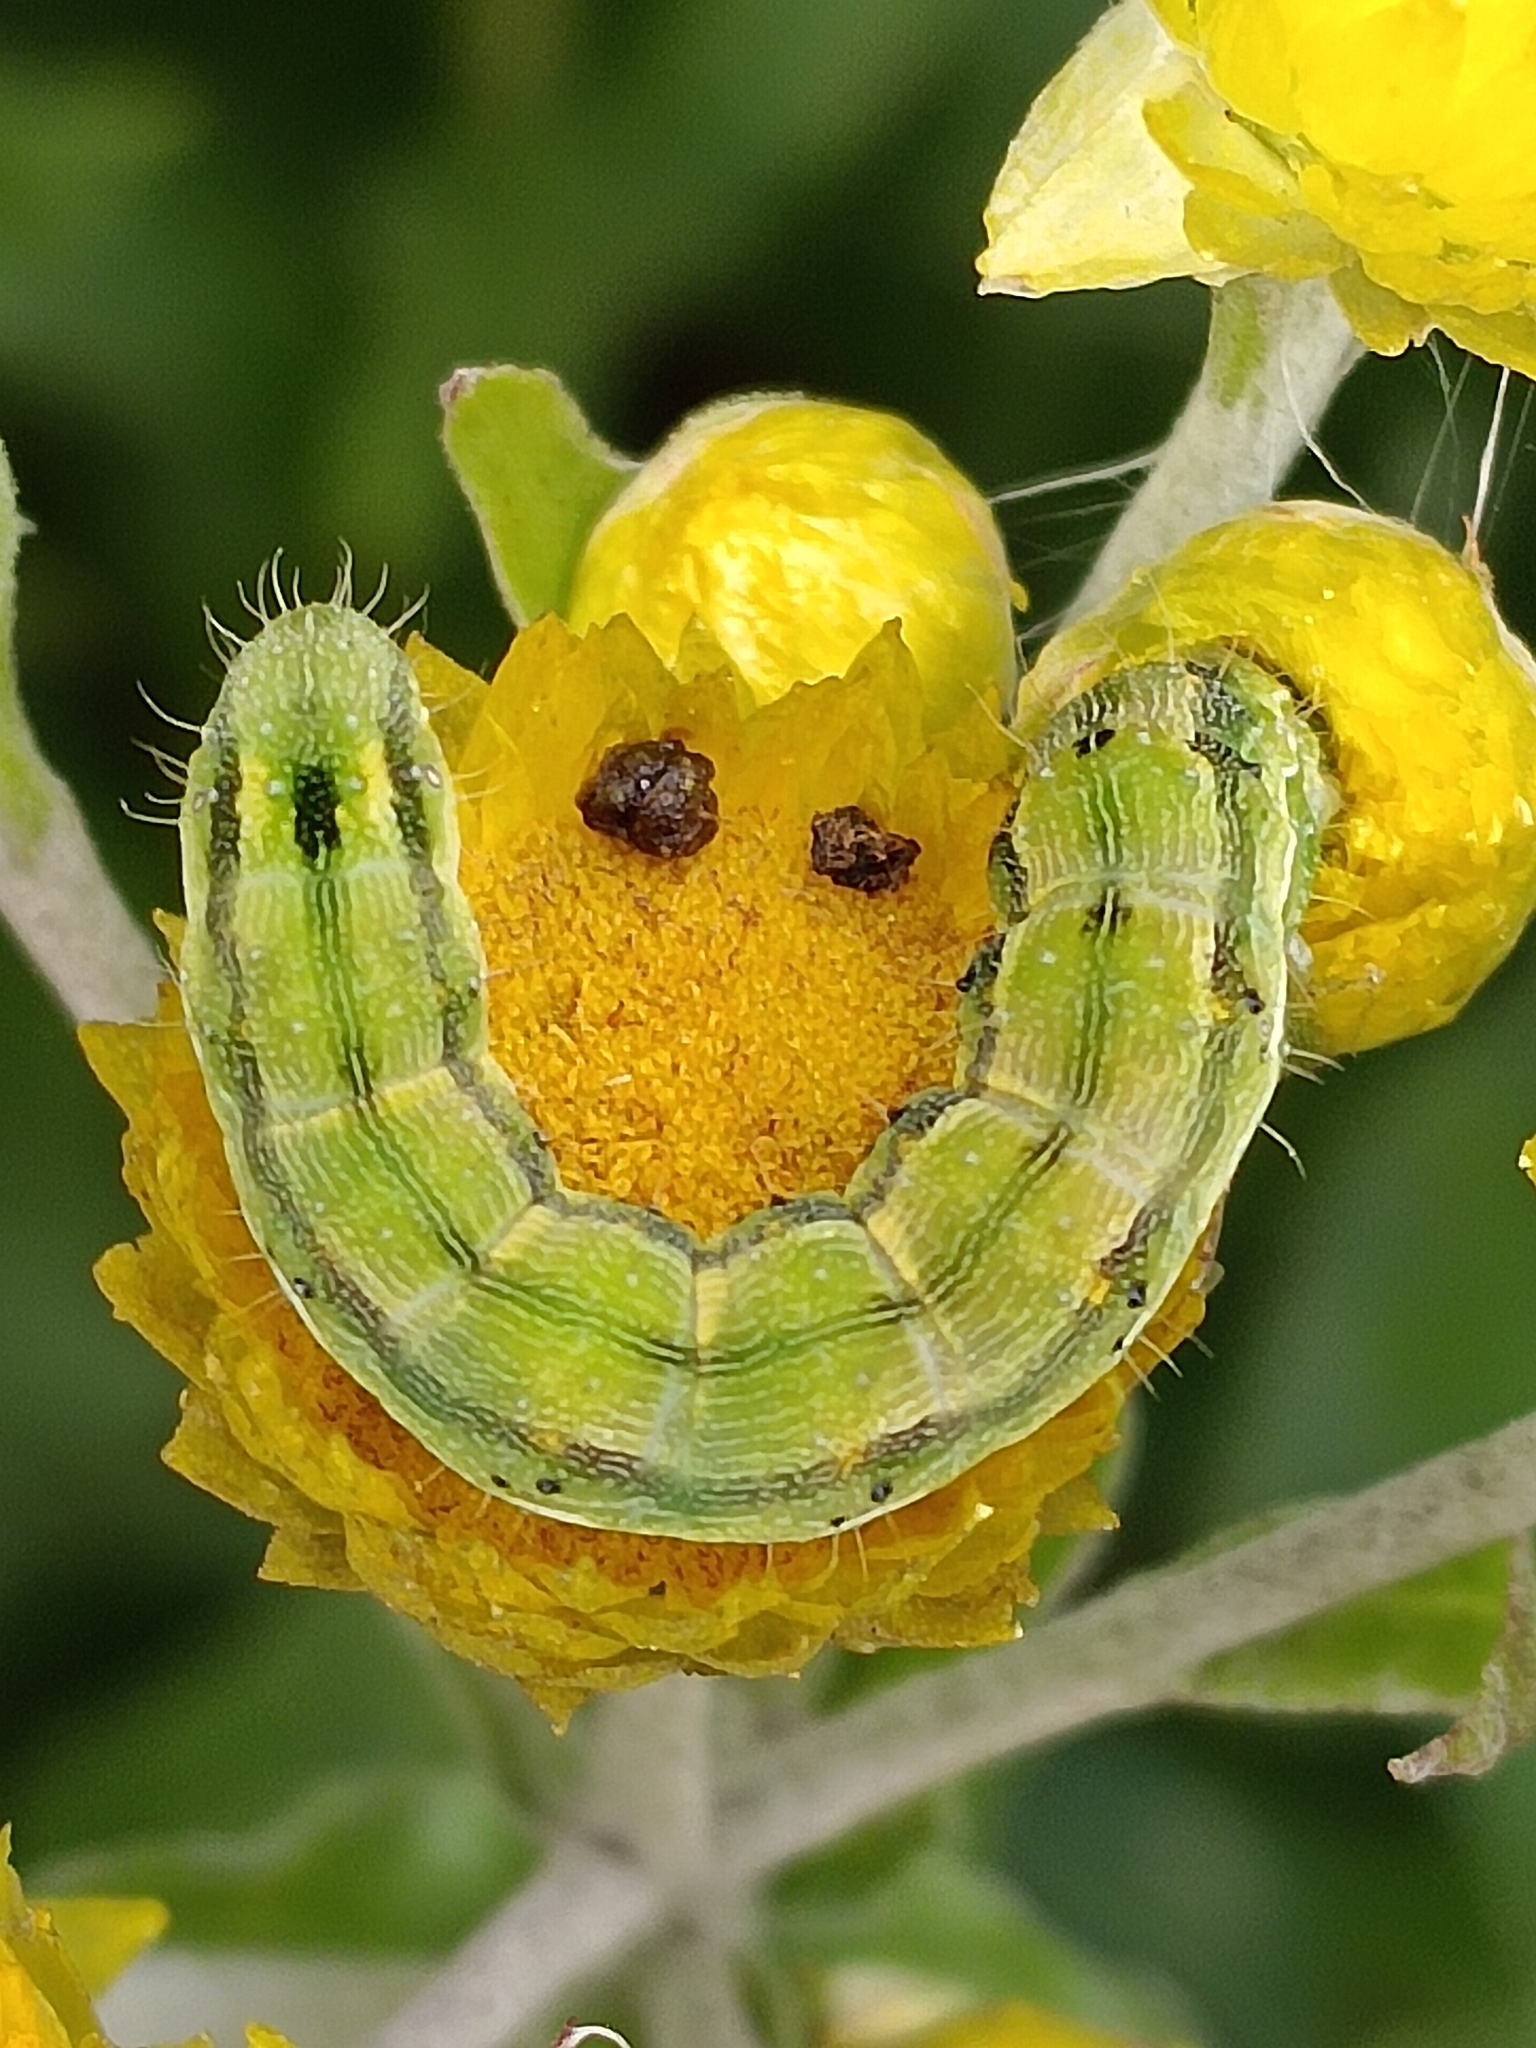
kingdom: Animalia
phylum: Arthropoda
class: Insecta
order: Lepidoptera
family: Noctuidae
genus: Helicoverpa
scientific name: Helicoverpa armigera
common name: Cotton bollworm
